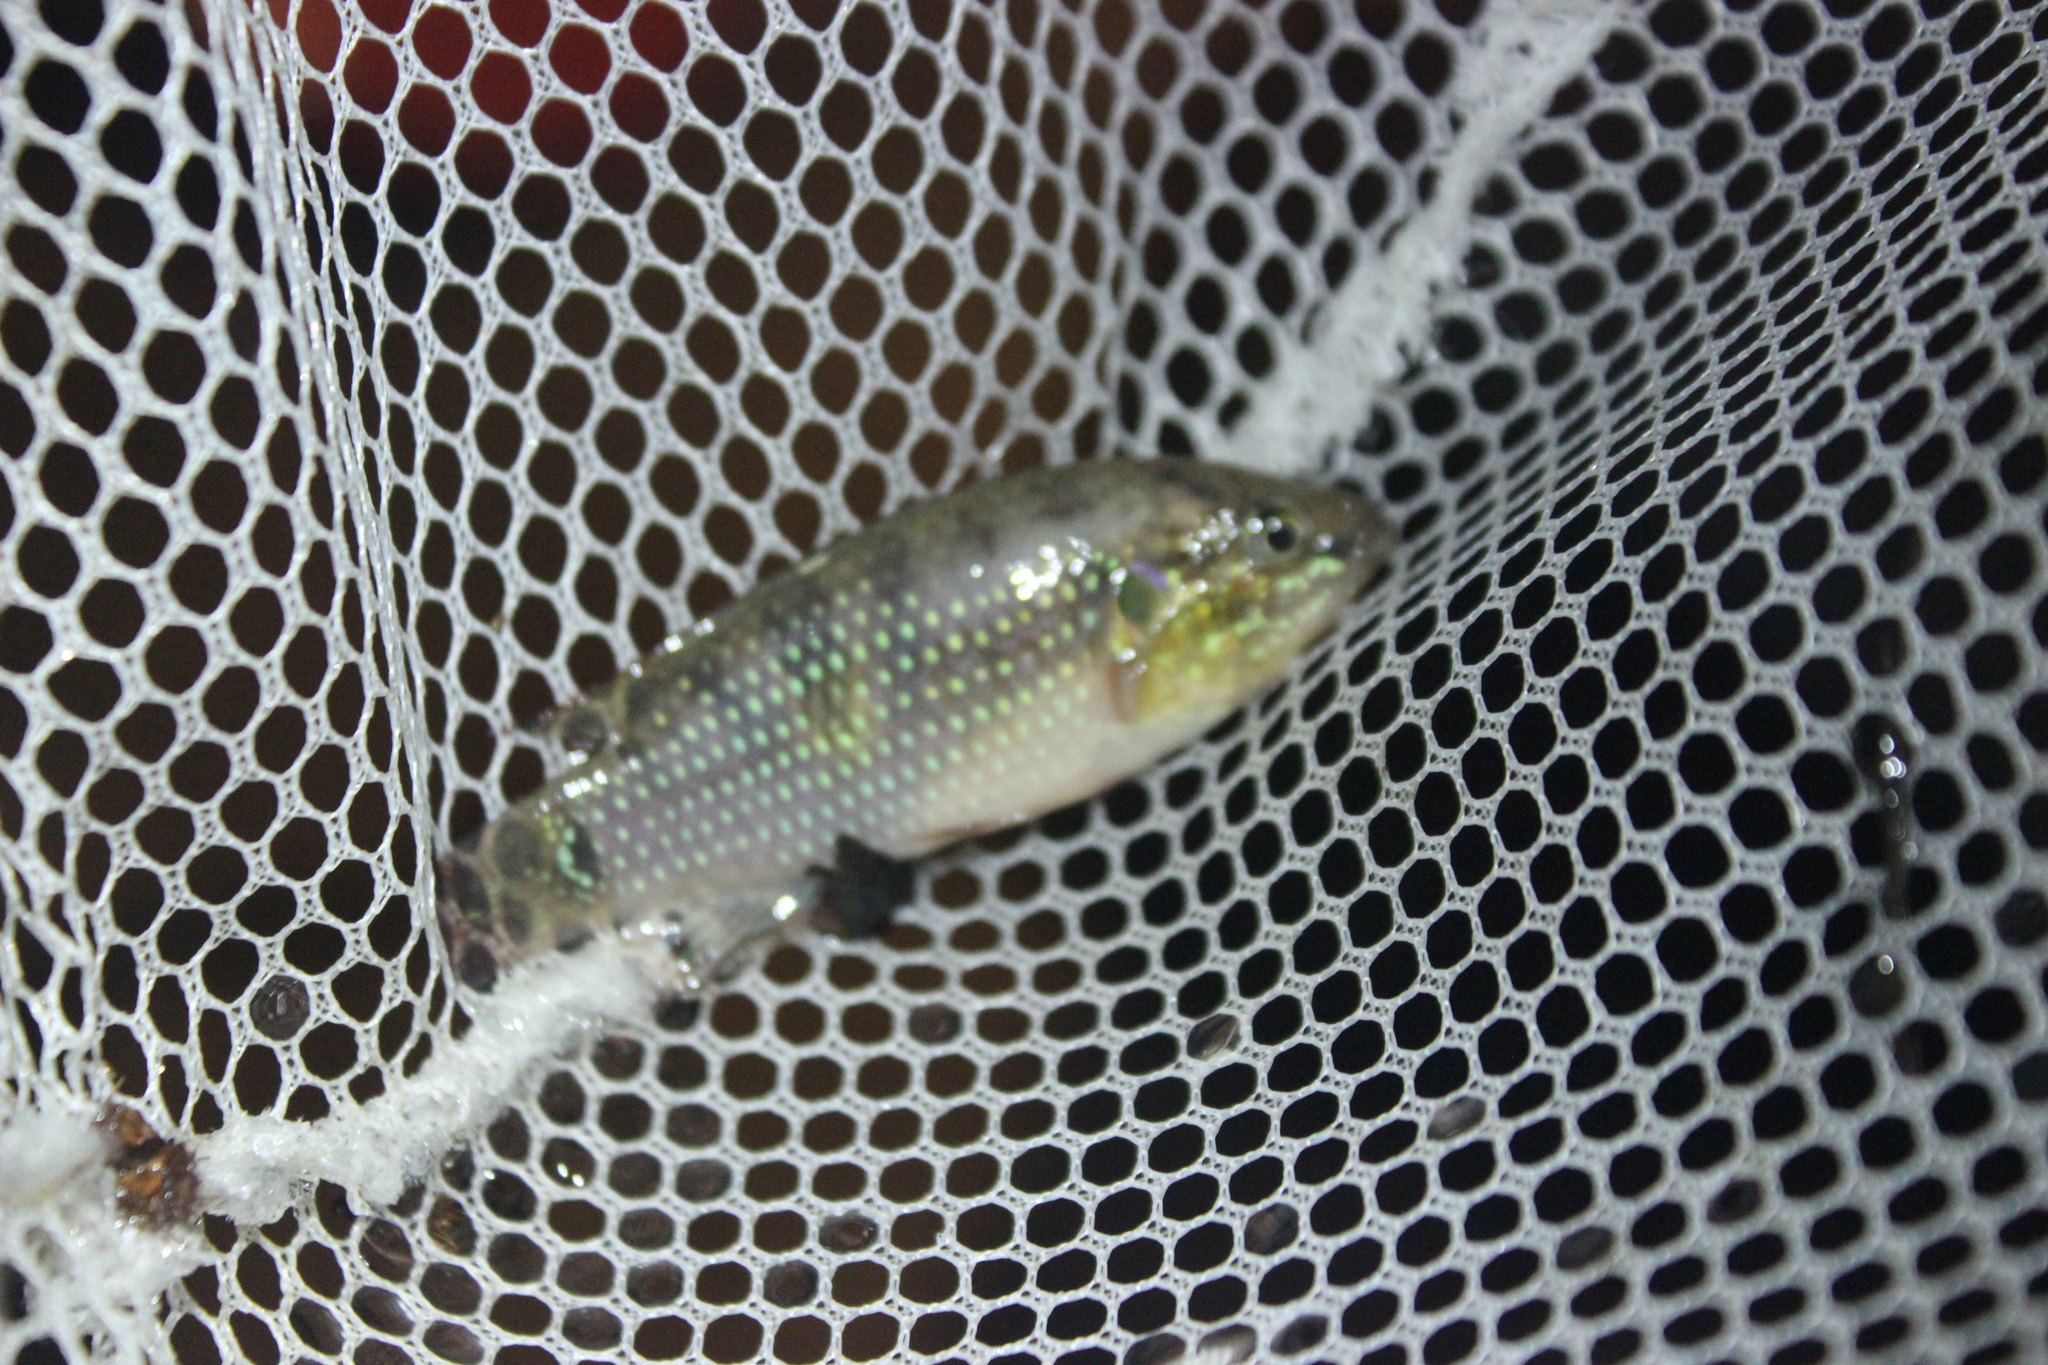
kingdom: Animalia
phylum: Chordata
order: Perciformes
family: Cichlidae
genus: Rubricatochromis
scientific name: Rubricatochromis
